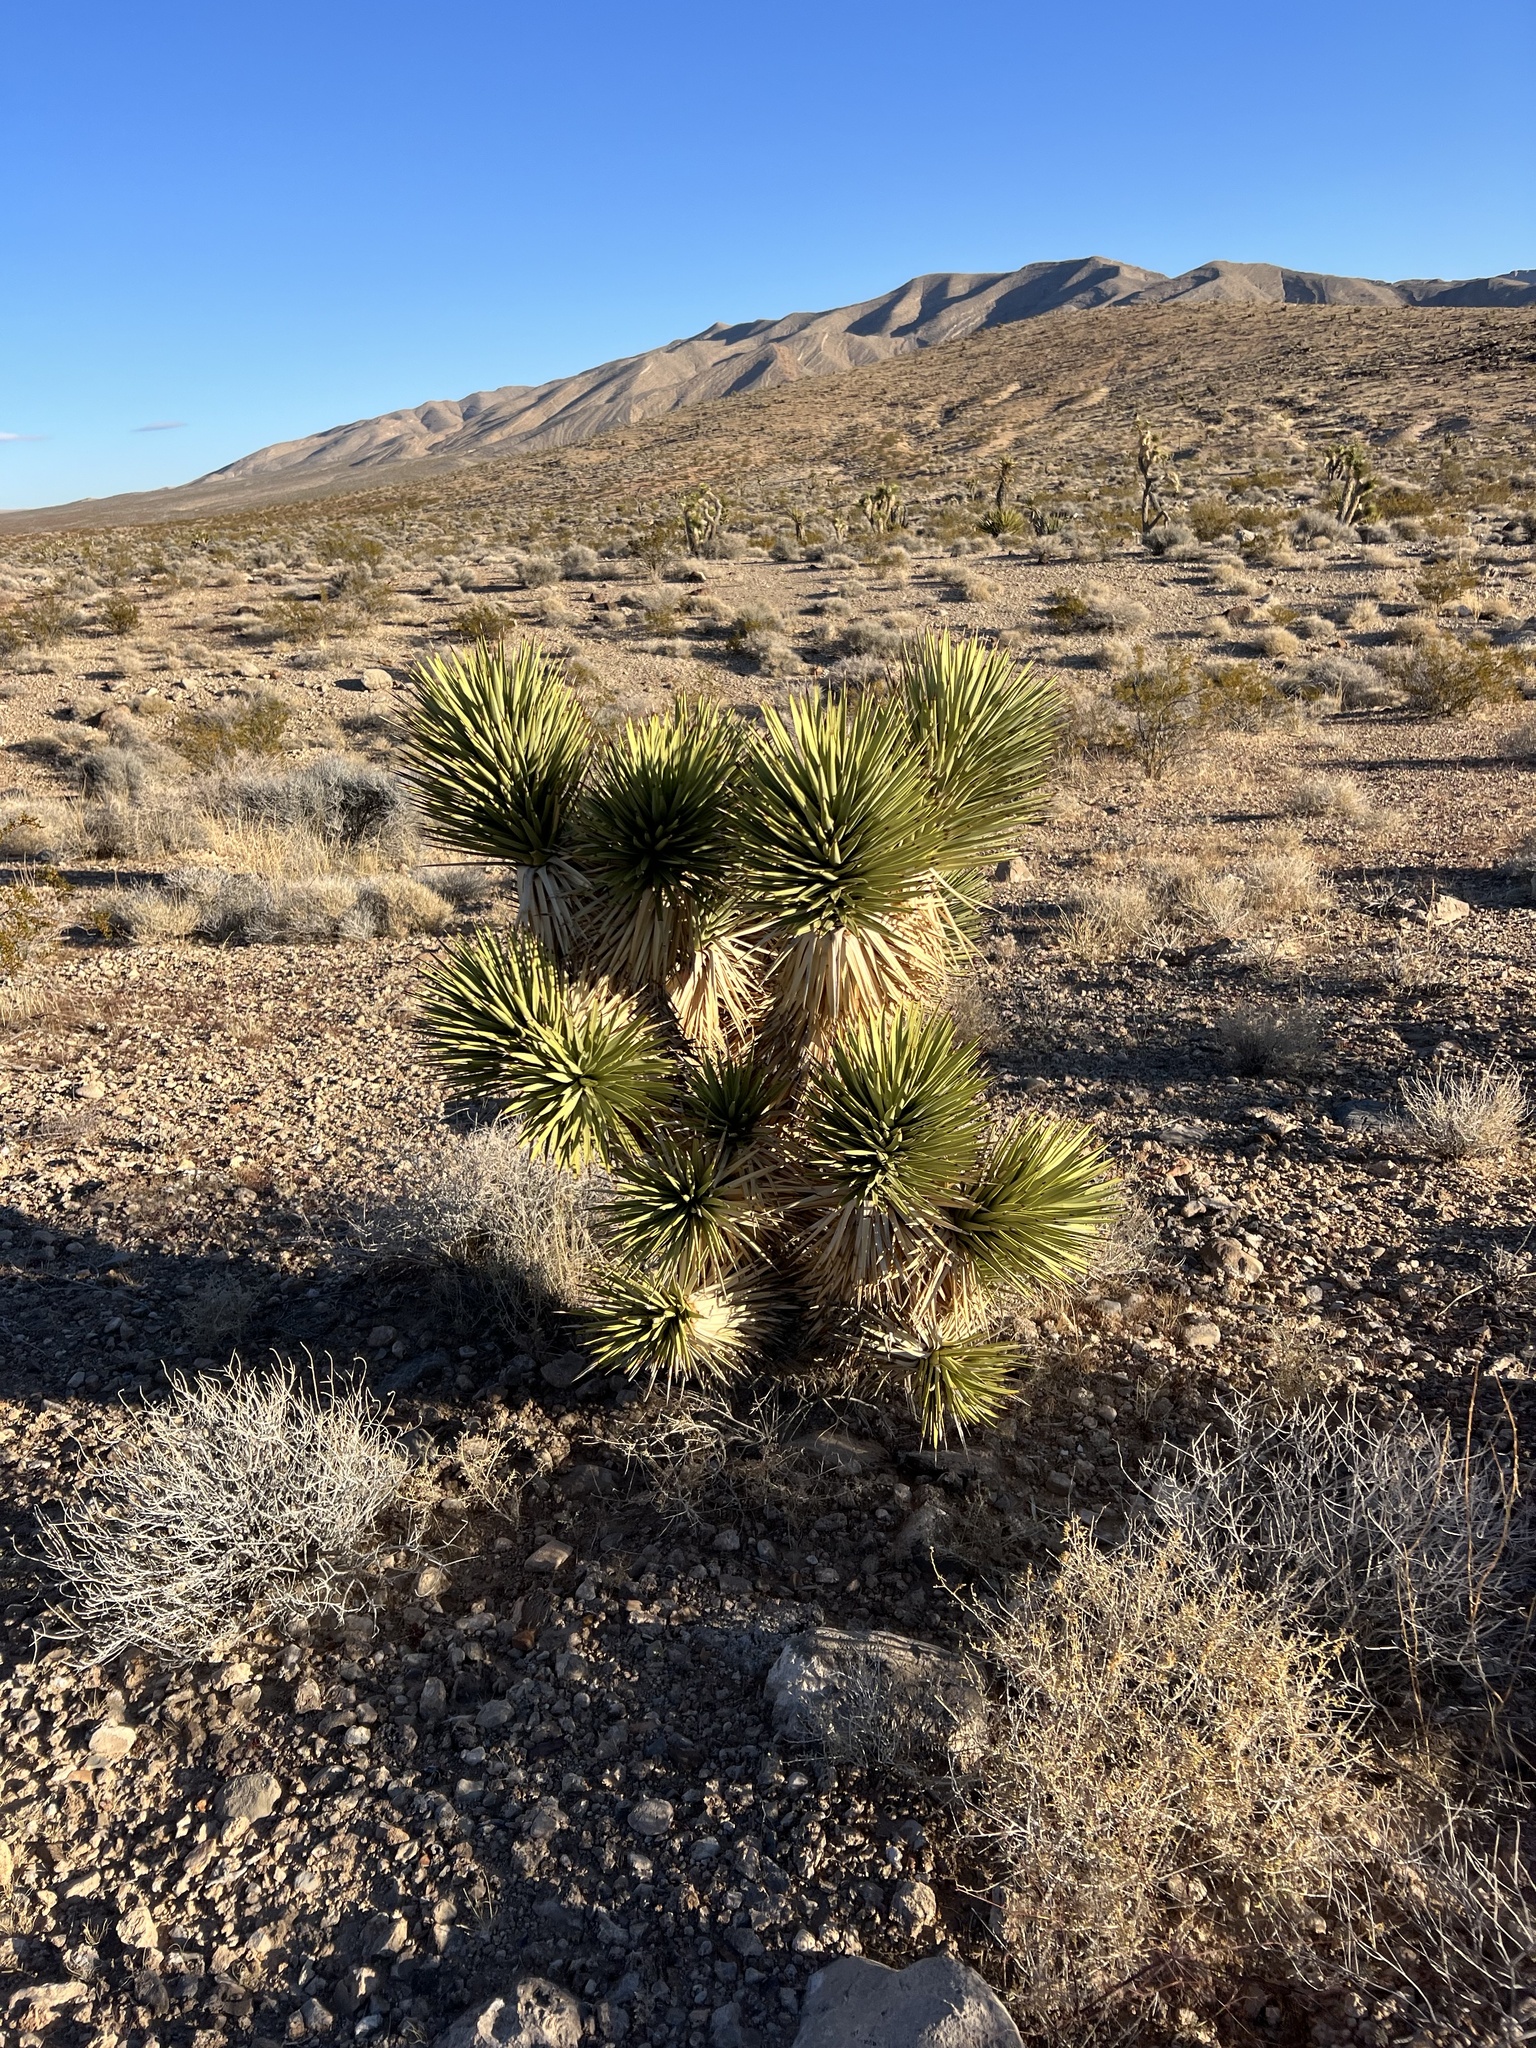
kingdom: Plantae
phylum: Tracheophyta
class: Liliopsida
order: Asparagales
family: Asparagaceae
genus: Yucca
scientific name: Yucca brevifolia
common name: Joshua tree
